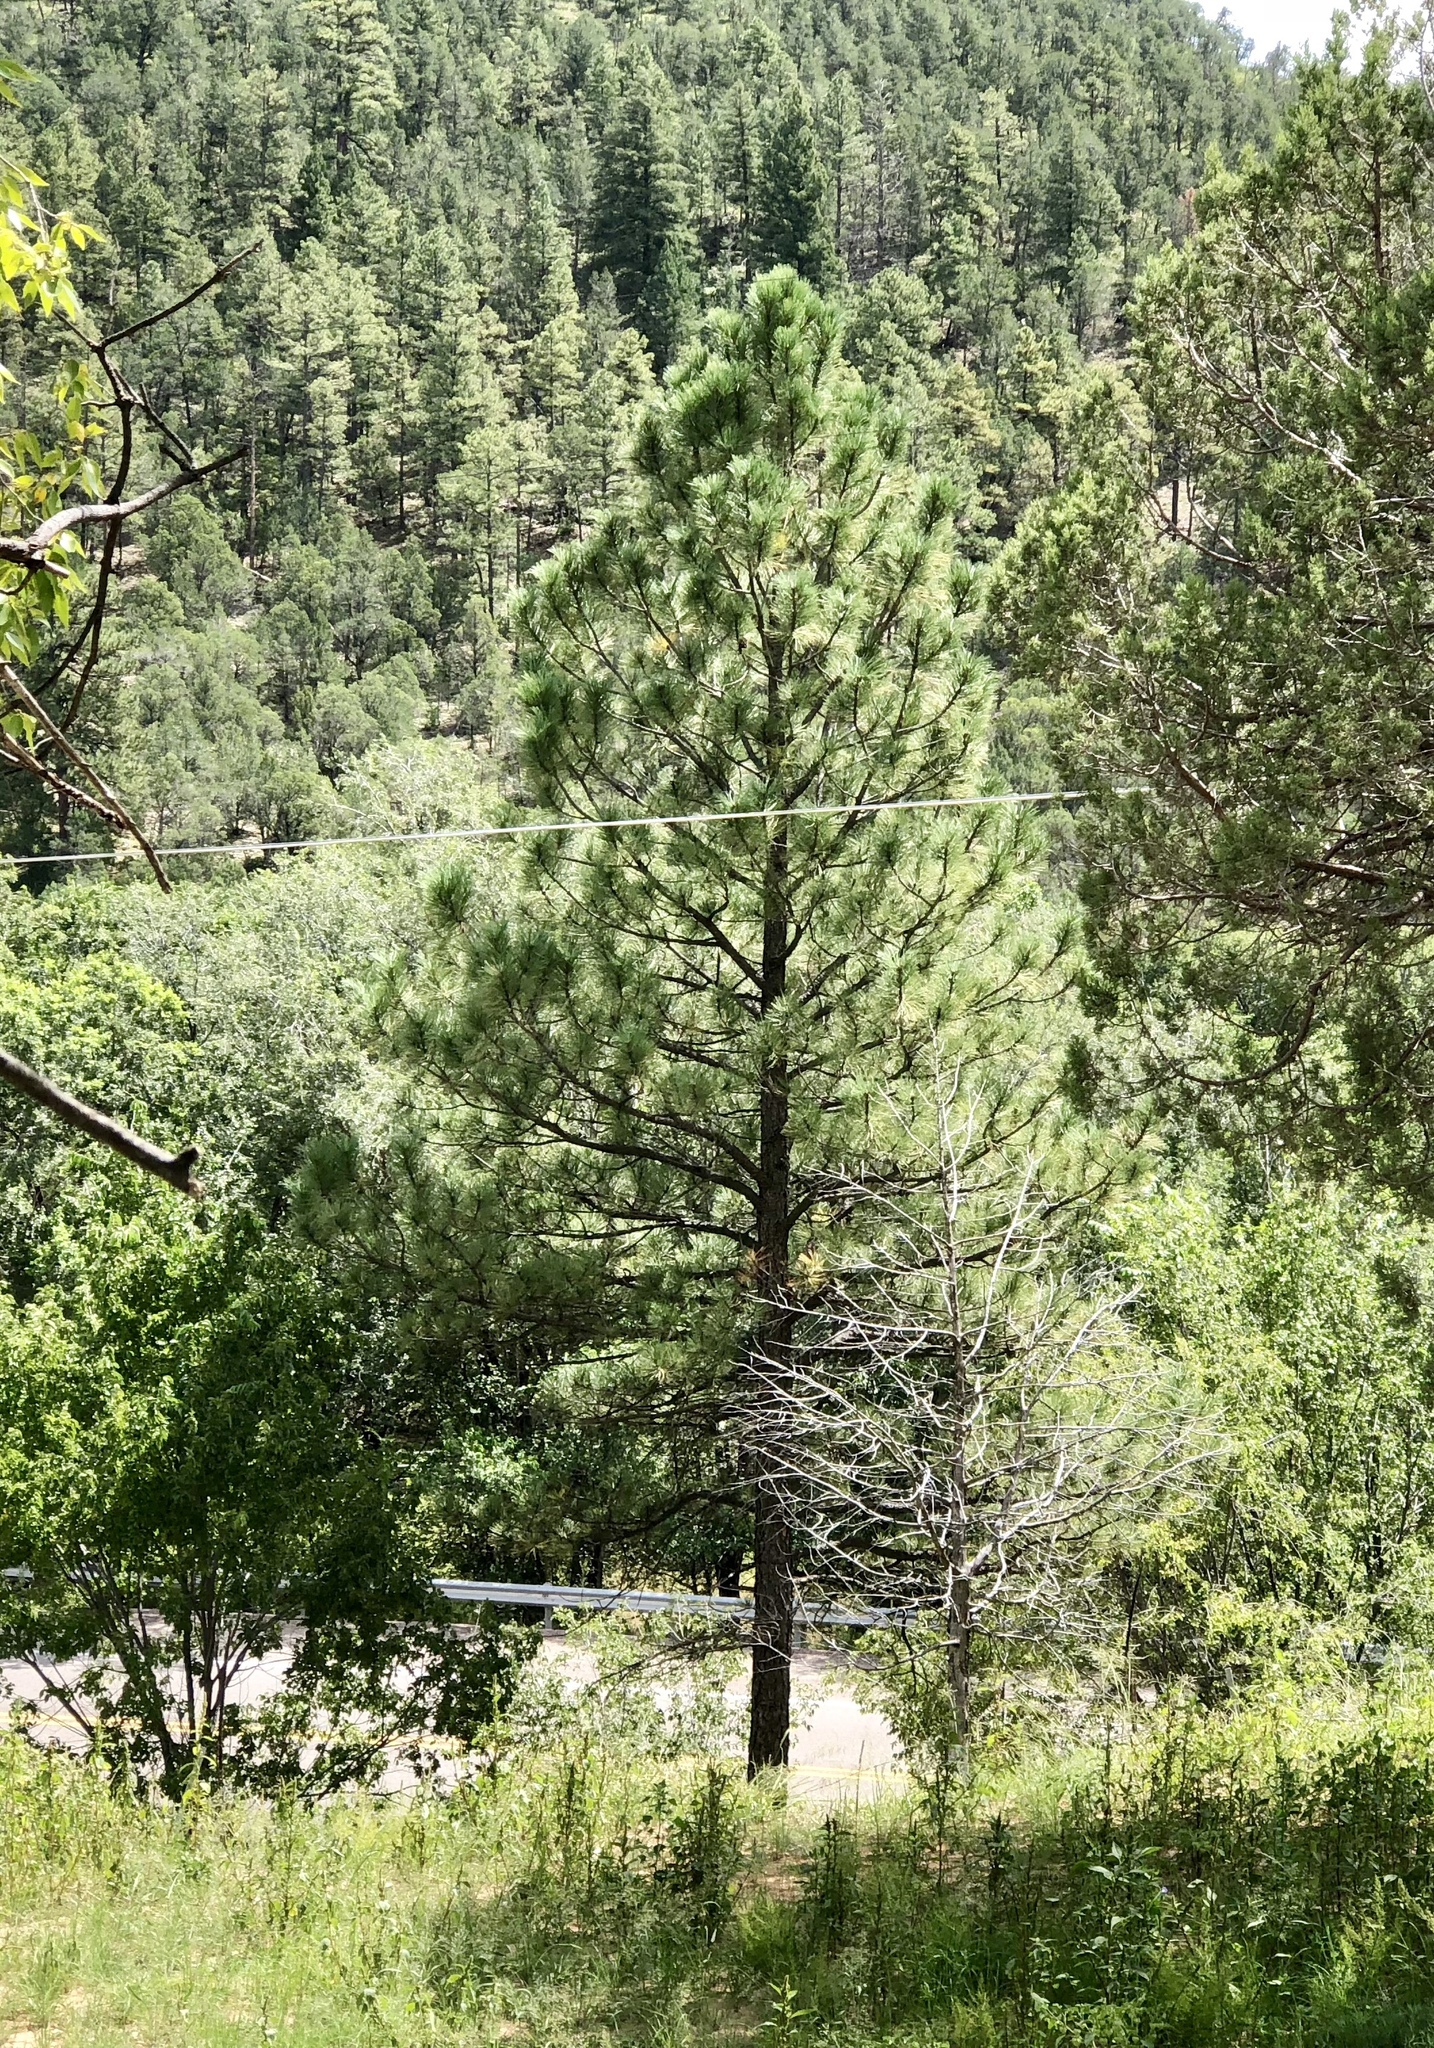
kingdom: Plantae
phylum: Tracheophyta
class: Pinopsida
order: Pinales
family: Pinaceae
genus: Pinus
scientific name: Pinus ponderosa
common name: Western yellow-pine
